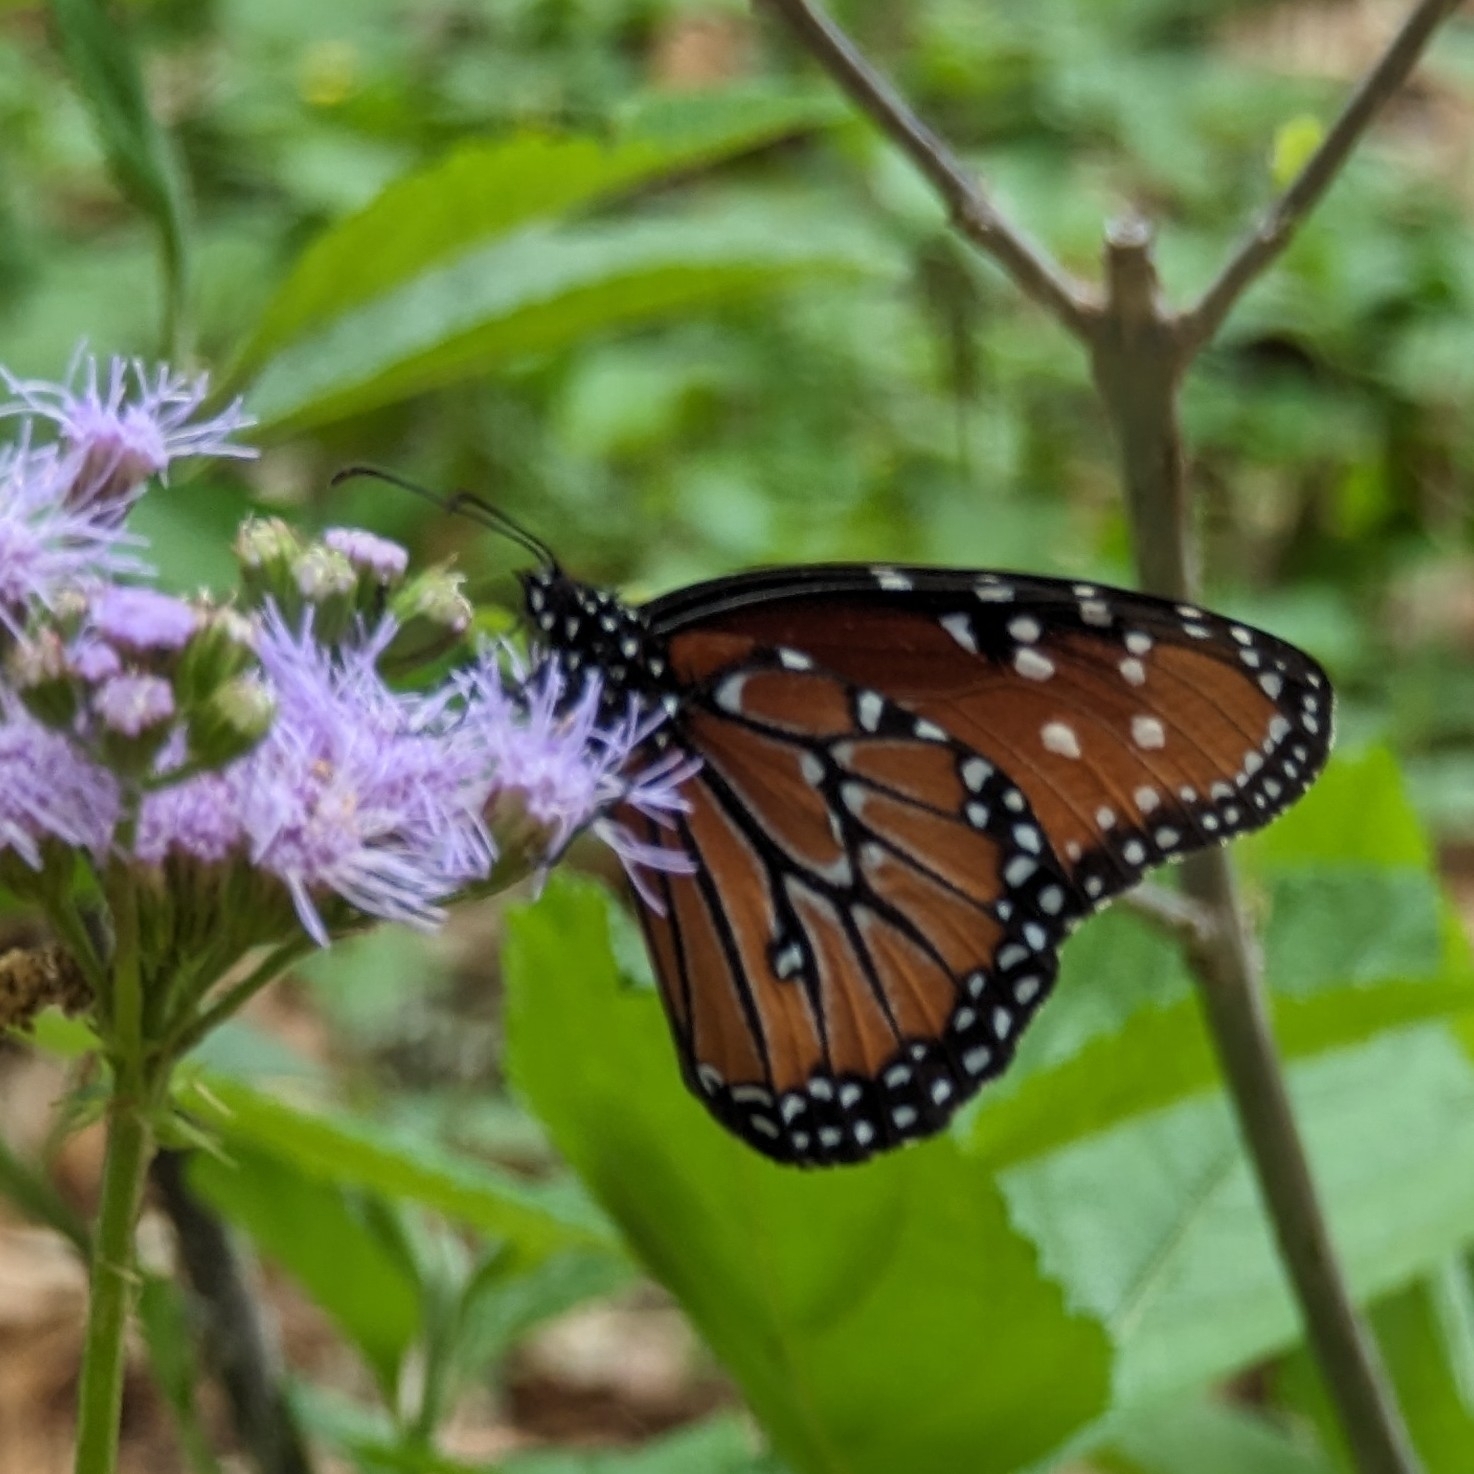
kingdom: Animalia
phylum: Arthropoda
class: Insecta
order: Lepidoptera
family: Nymphalidae
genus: Danaus
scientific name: Danaus gilippus
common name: Queen
